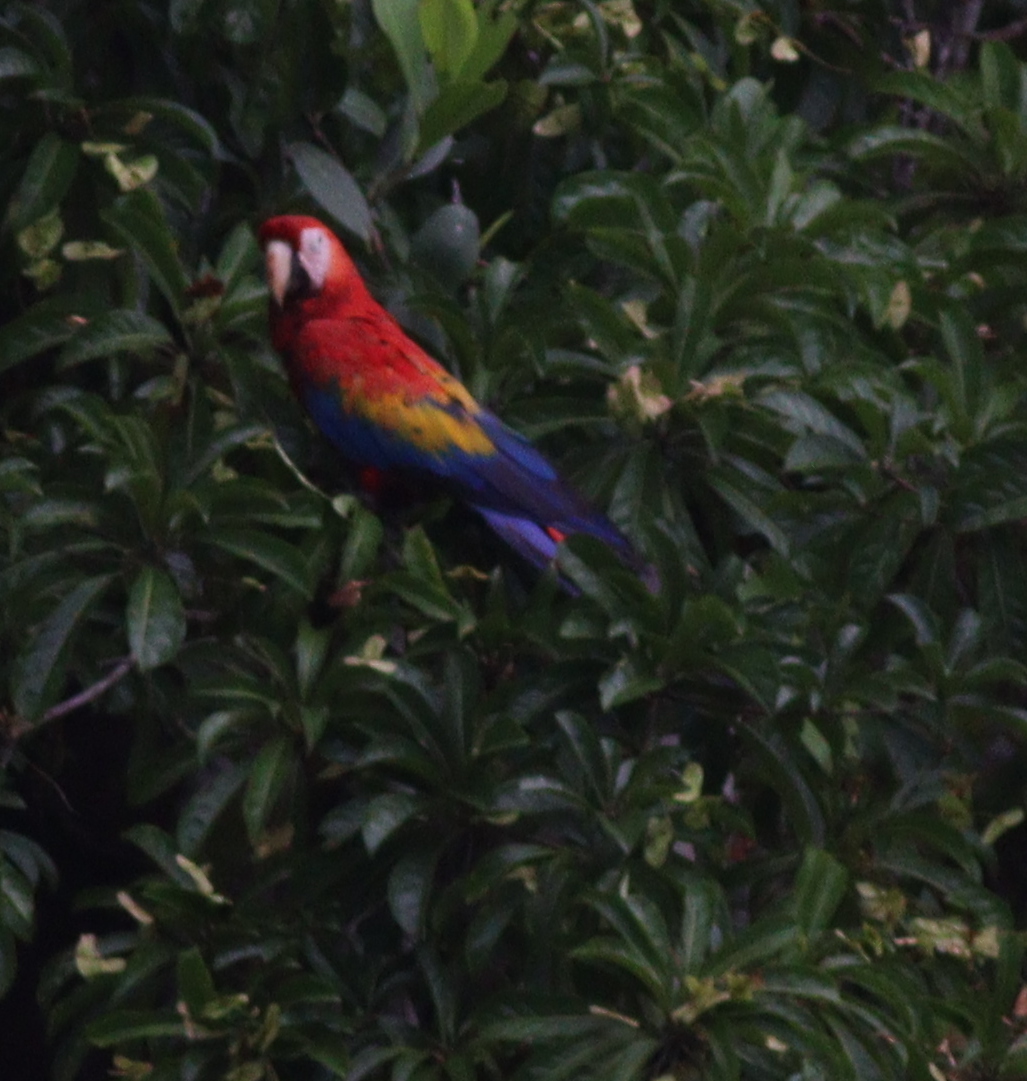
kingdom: Animalia
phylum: Chordata
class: Aves
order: Psittaciformes
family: Psittacidae
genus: Ara
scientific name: Ara macao
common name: Scarlet macaw
